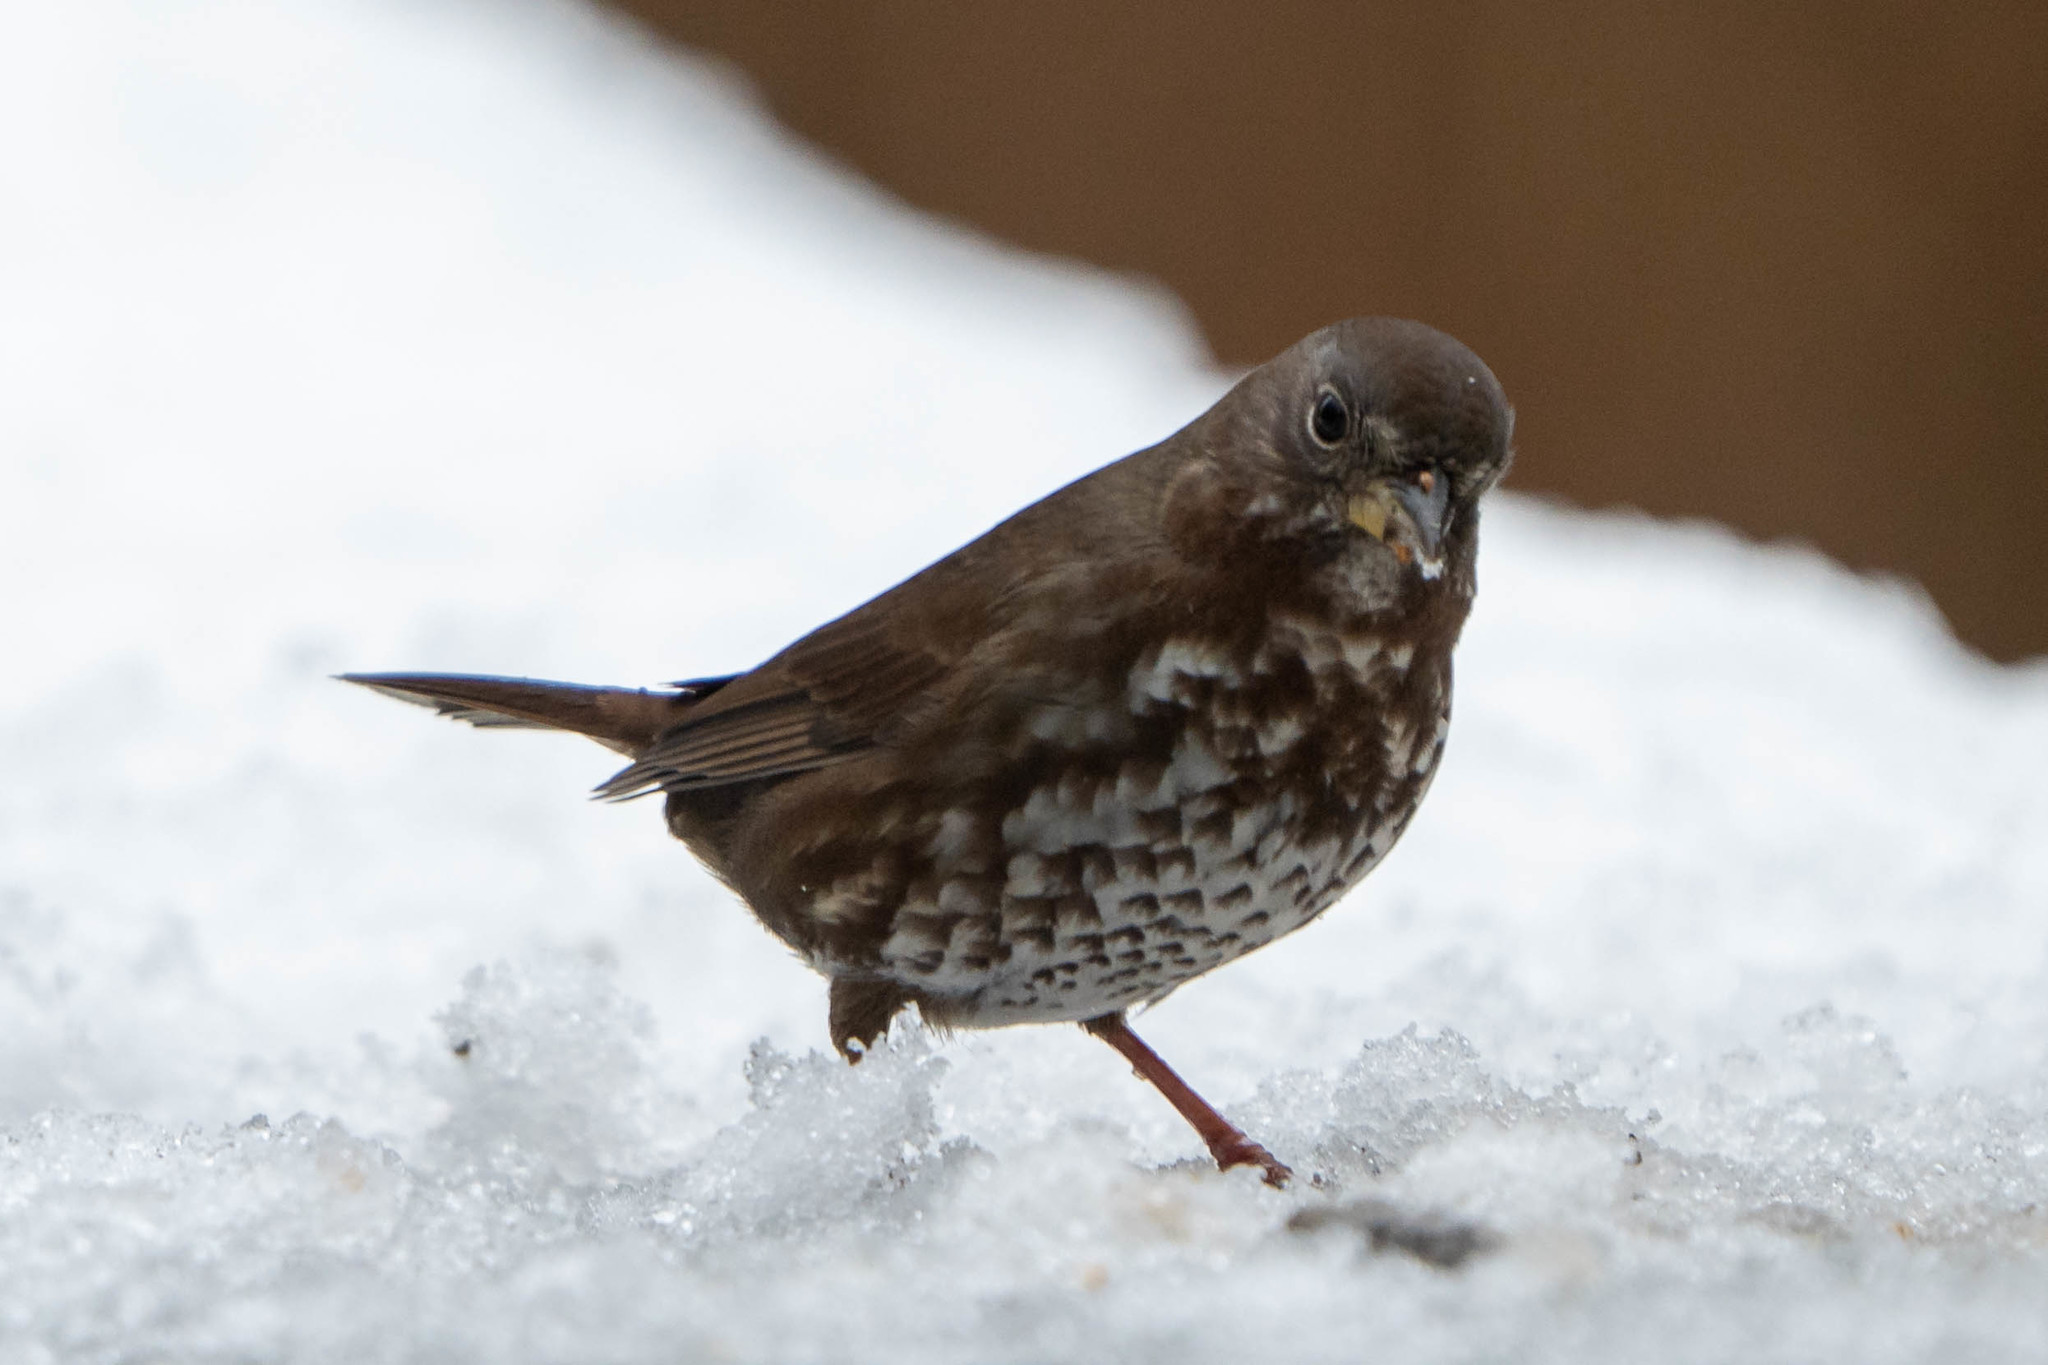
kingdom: Animalia
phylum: Chordata
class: Aves
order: Passeriformes
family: Passerellidae
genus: Passerella
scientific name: Passerella iliaca
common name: Fox sparrow
